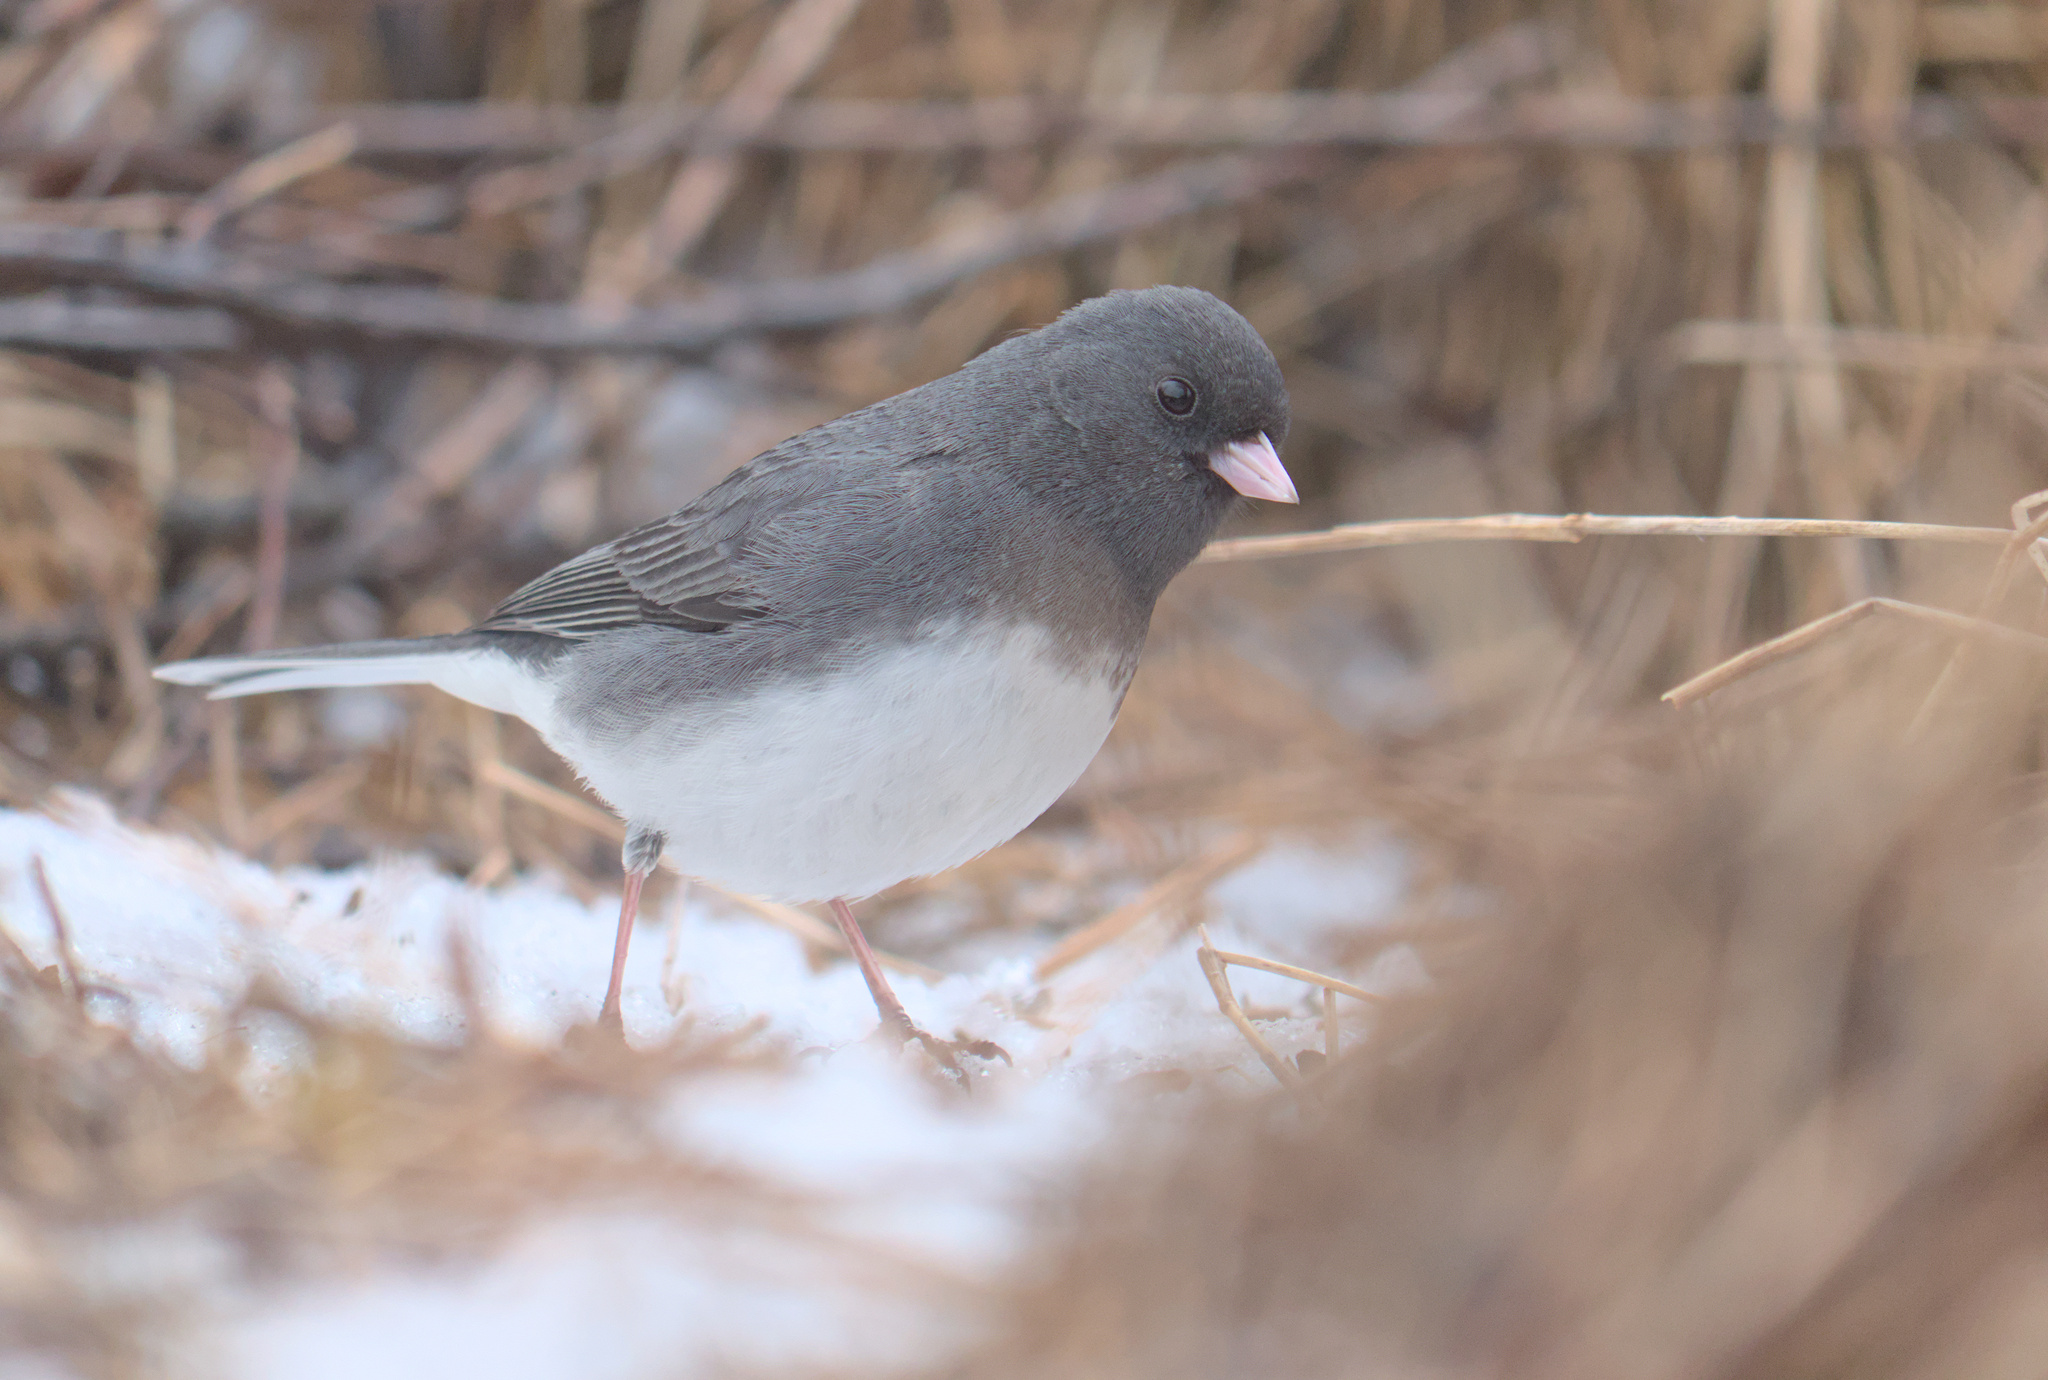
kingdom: Animalia
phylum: Chordata
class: Aves
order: Passeriformes
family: Passerellidae
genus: Junco
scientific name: Junco hyemalis
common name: Dark-eyed junco
